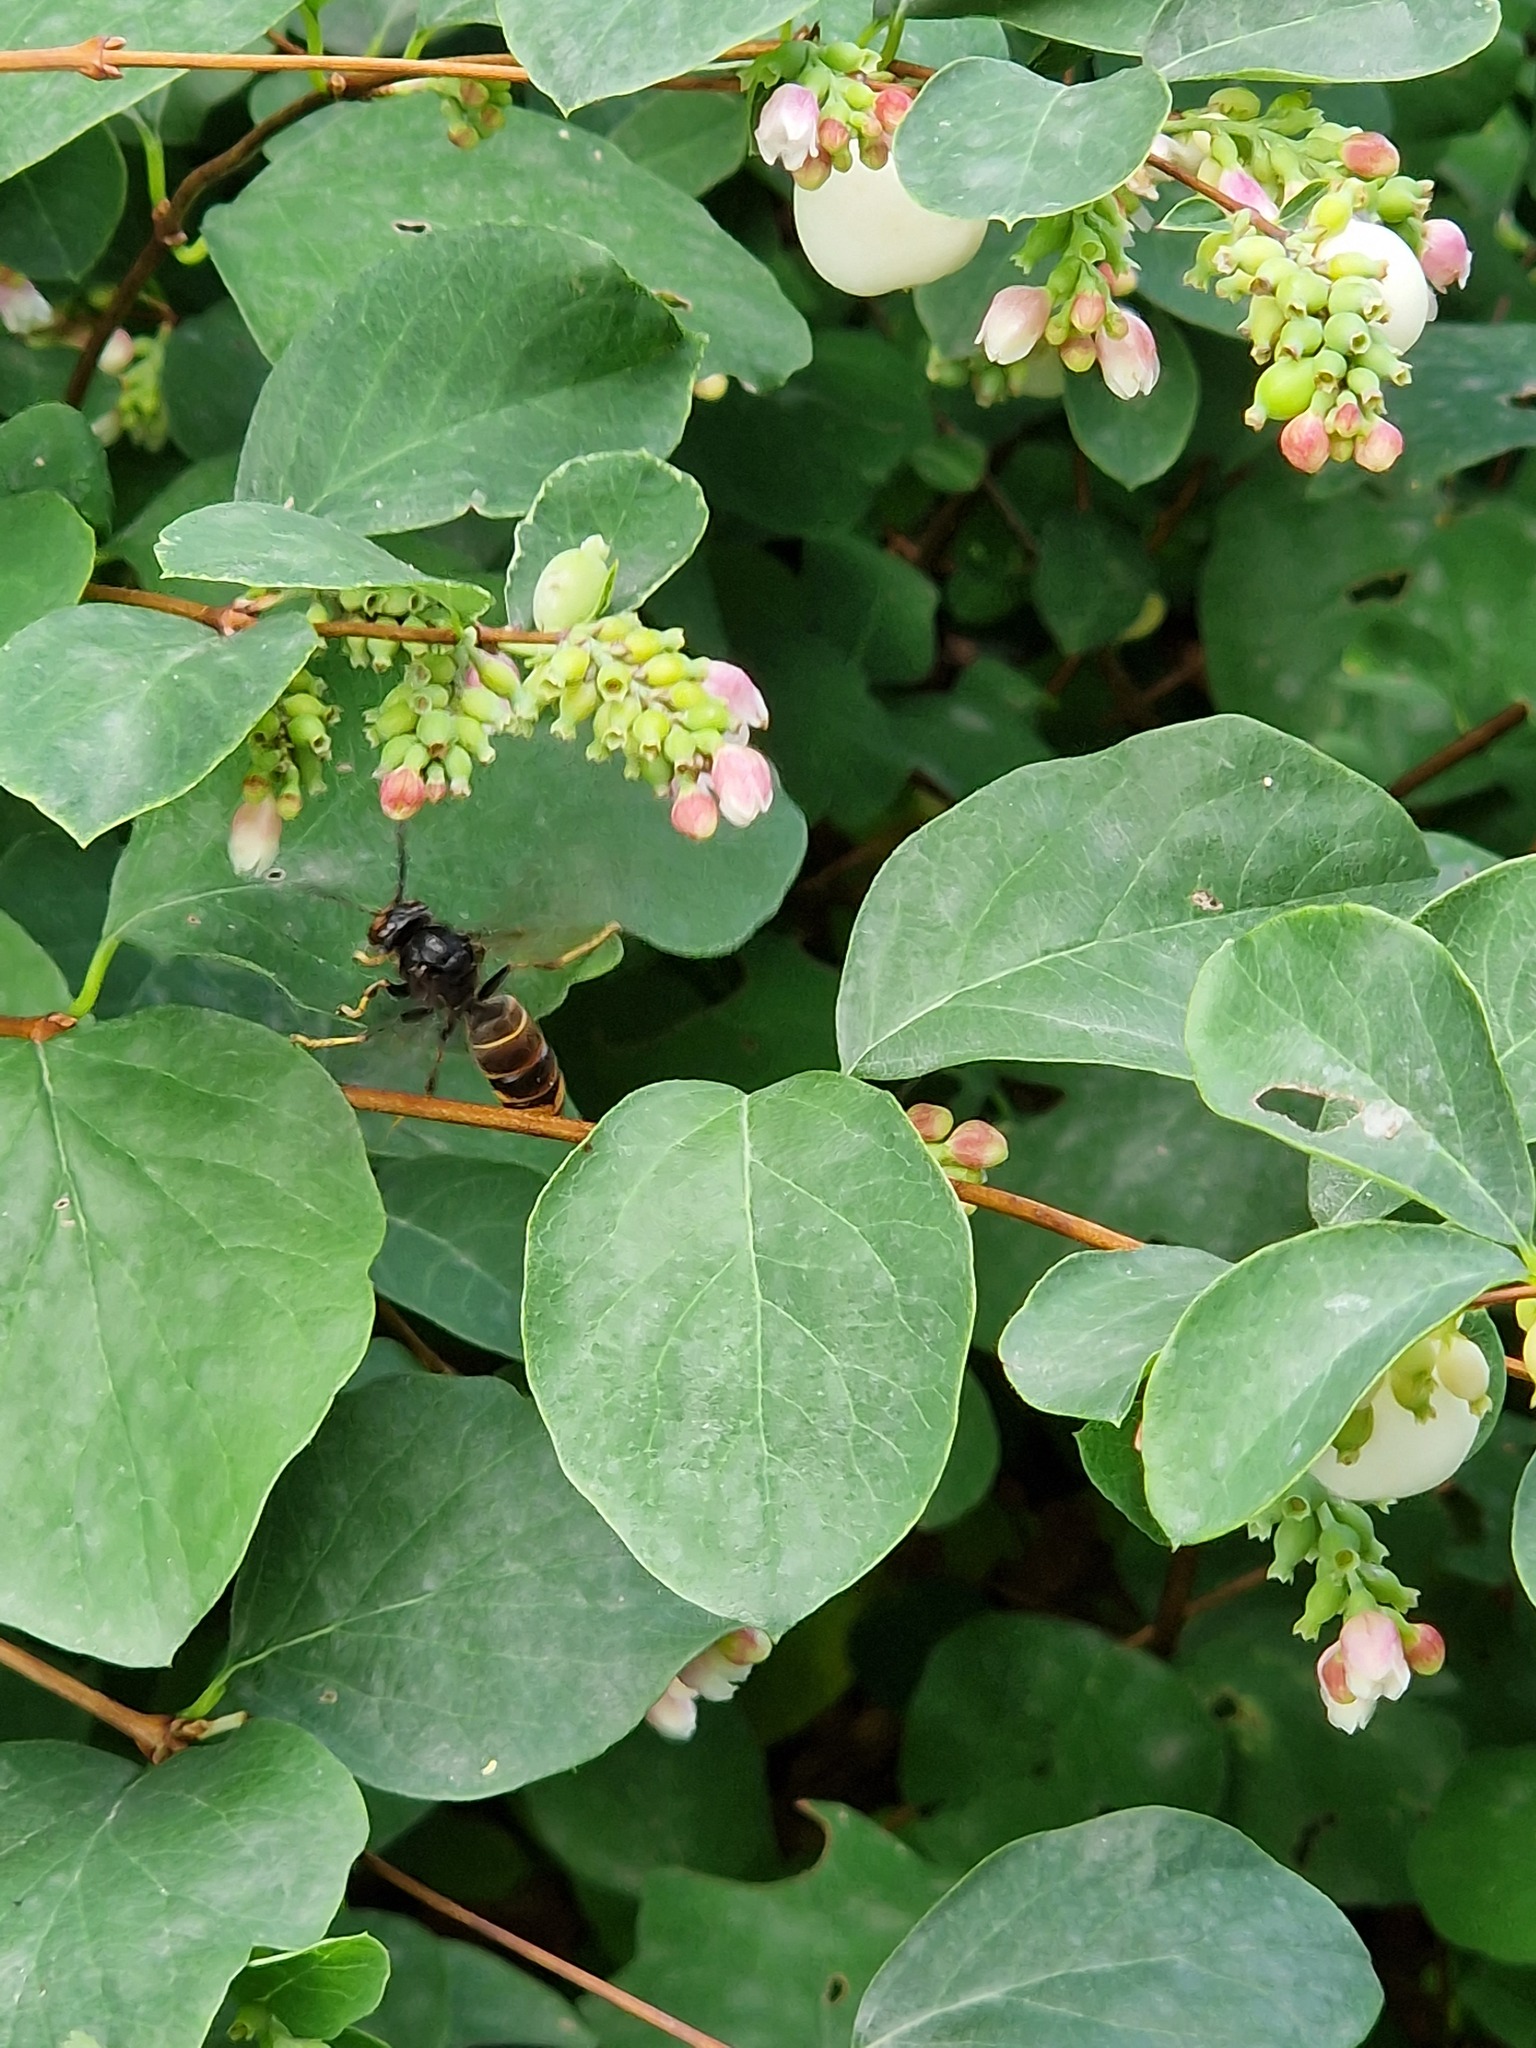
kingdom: Animalia
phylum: Arthropoda
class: Insecta
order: Hymenoptera
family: Vespidae
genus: Vespa
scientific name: Vespa velutina
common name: Asian hornet
